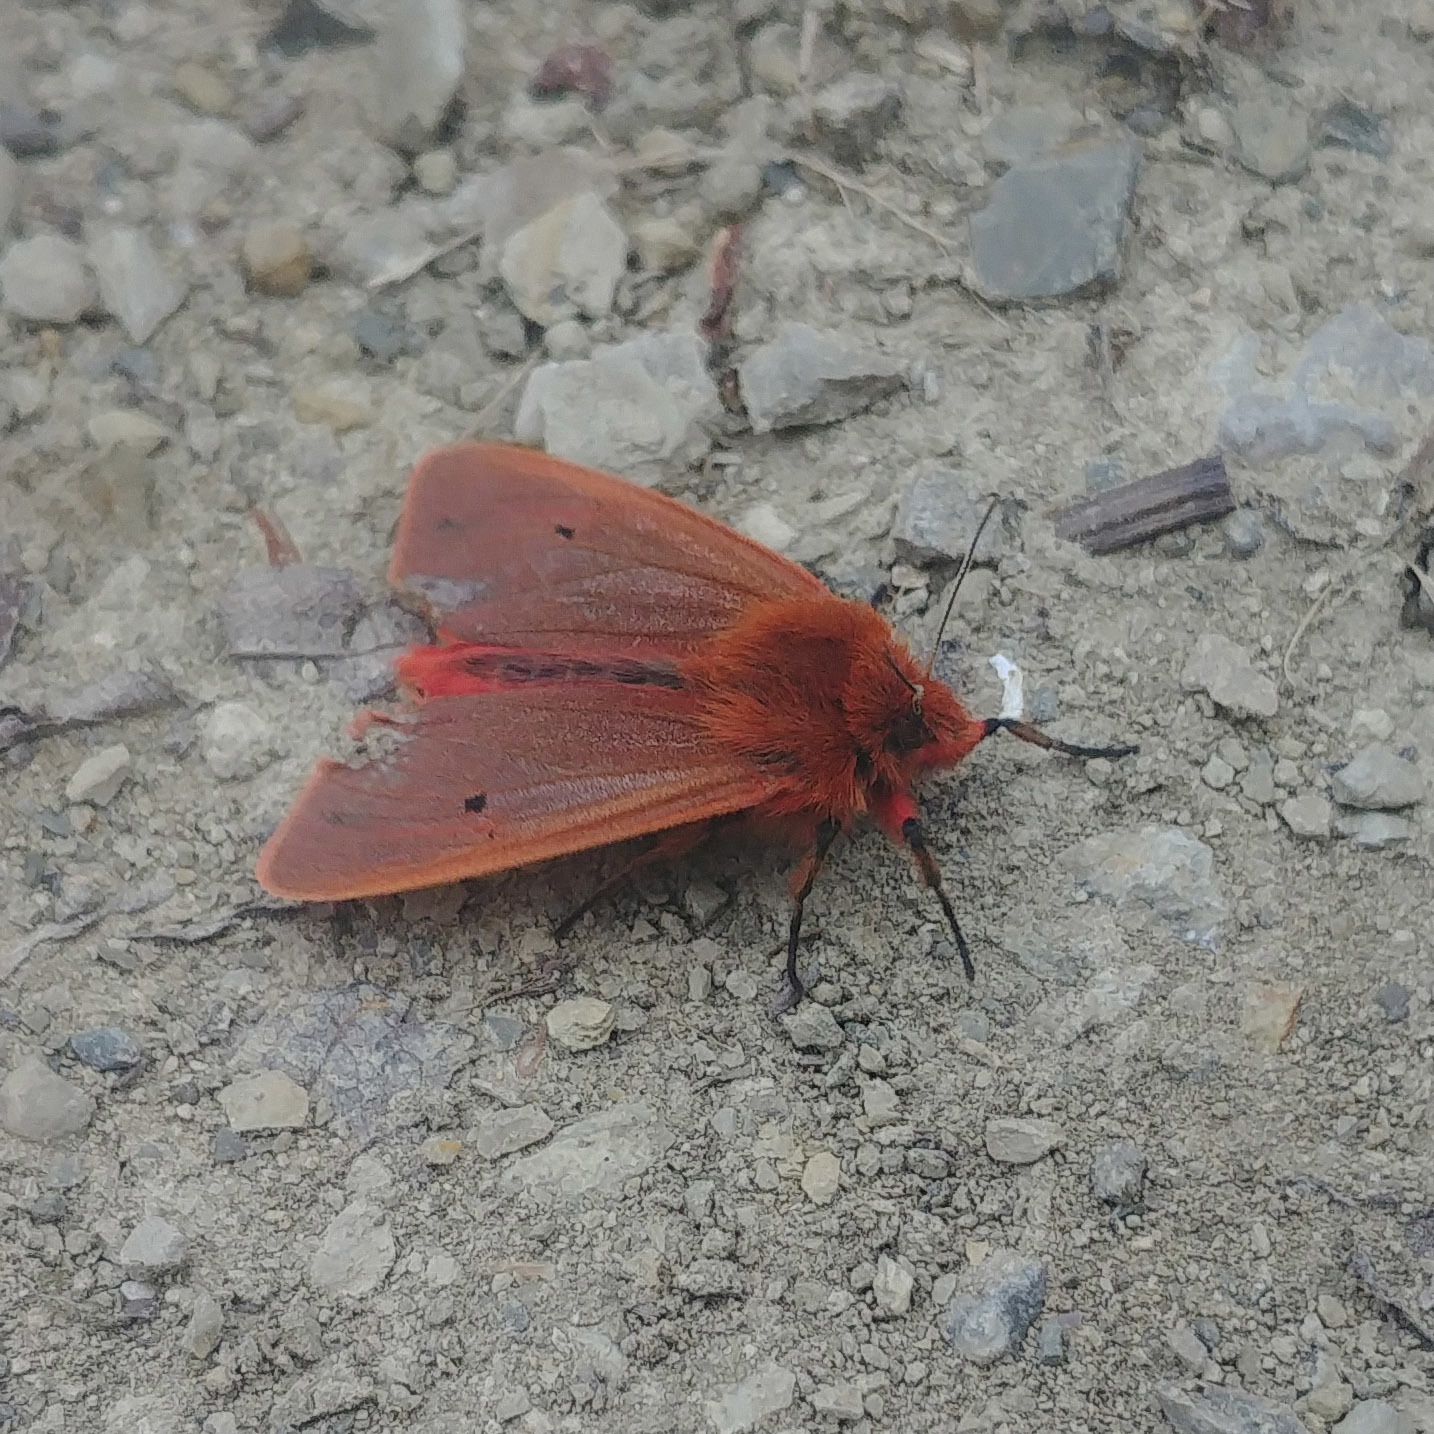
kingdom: Animalia
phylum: Arthropoda
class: Insecta
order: Lepidoptera
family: Erebidae
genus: Phragmatobia
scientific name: Phragmatobia fuliginosa
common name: Ruby tiger
